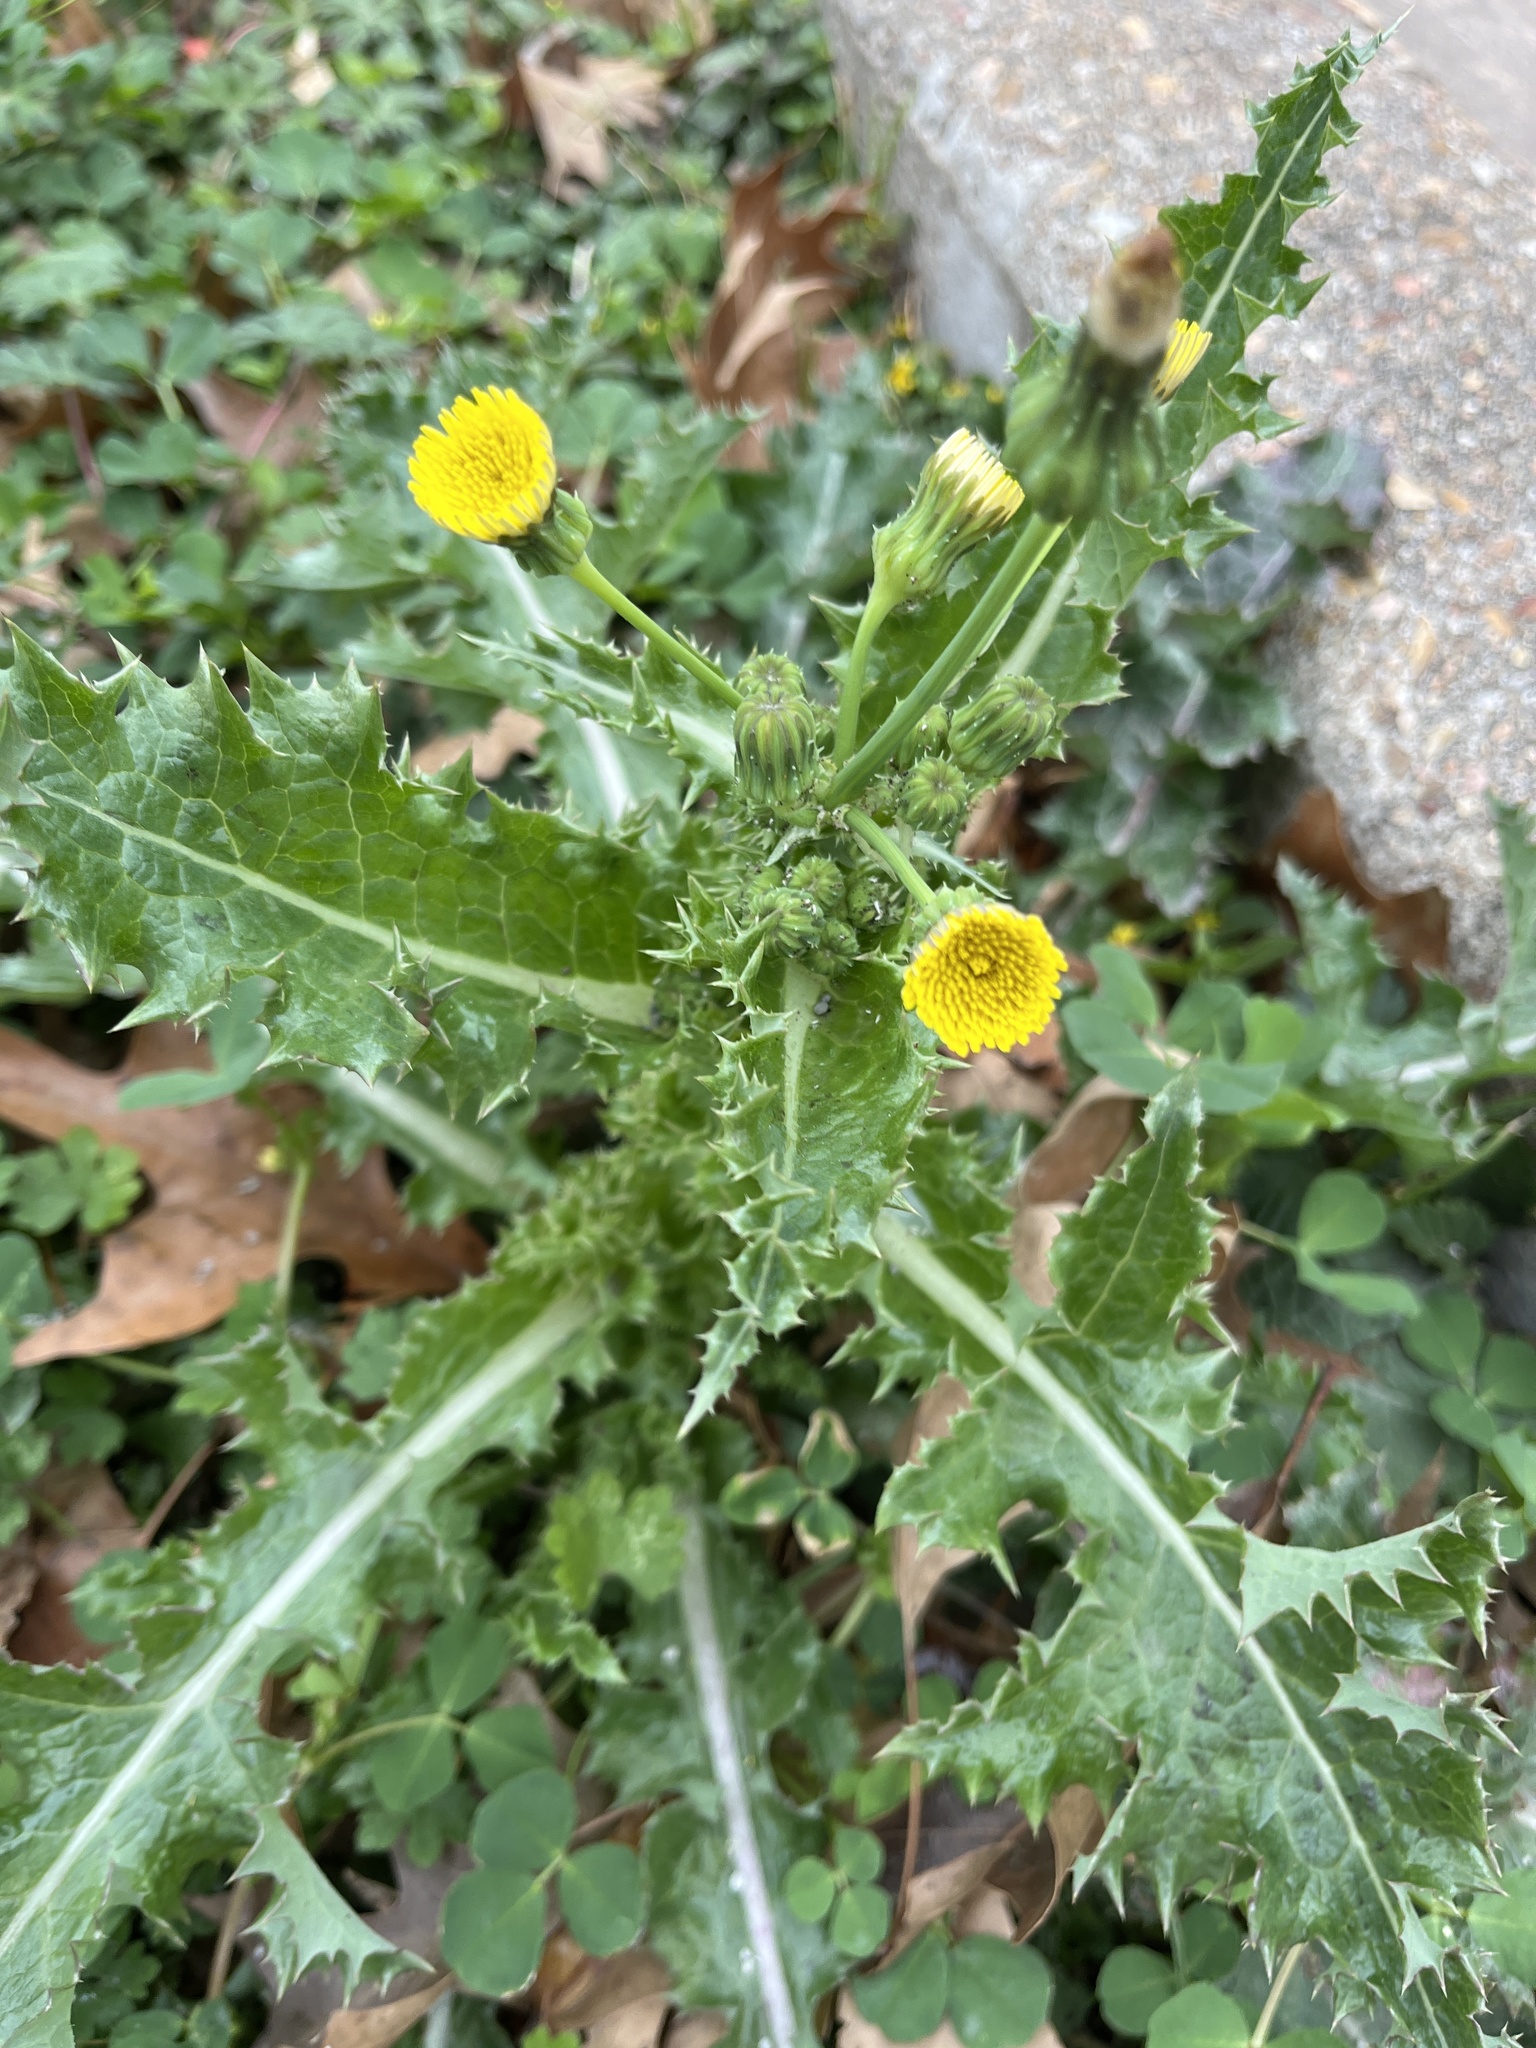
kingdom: Plantae
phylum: Tracheophyta
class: Magnoliopsida
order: Asterales
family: Asteraceae
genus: Sonchus
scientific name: Sonchus asper
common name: Prickly sow-thistle
